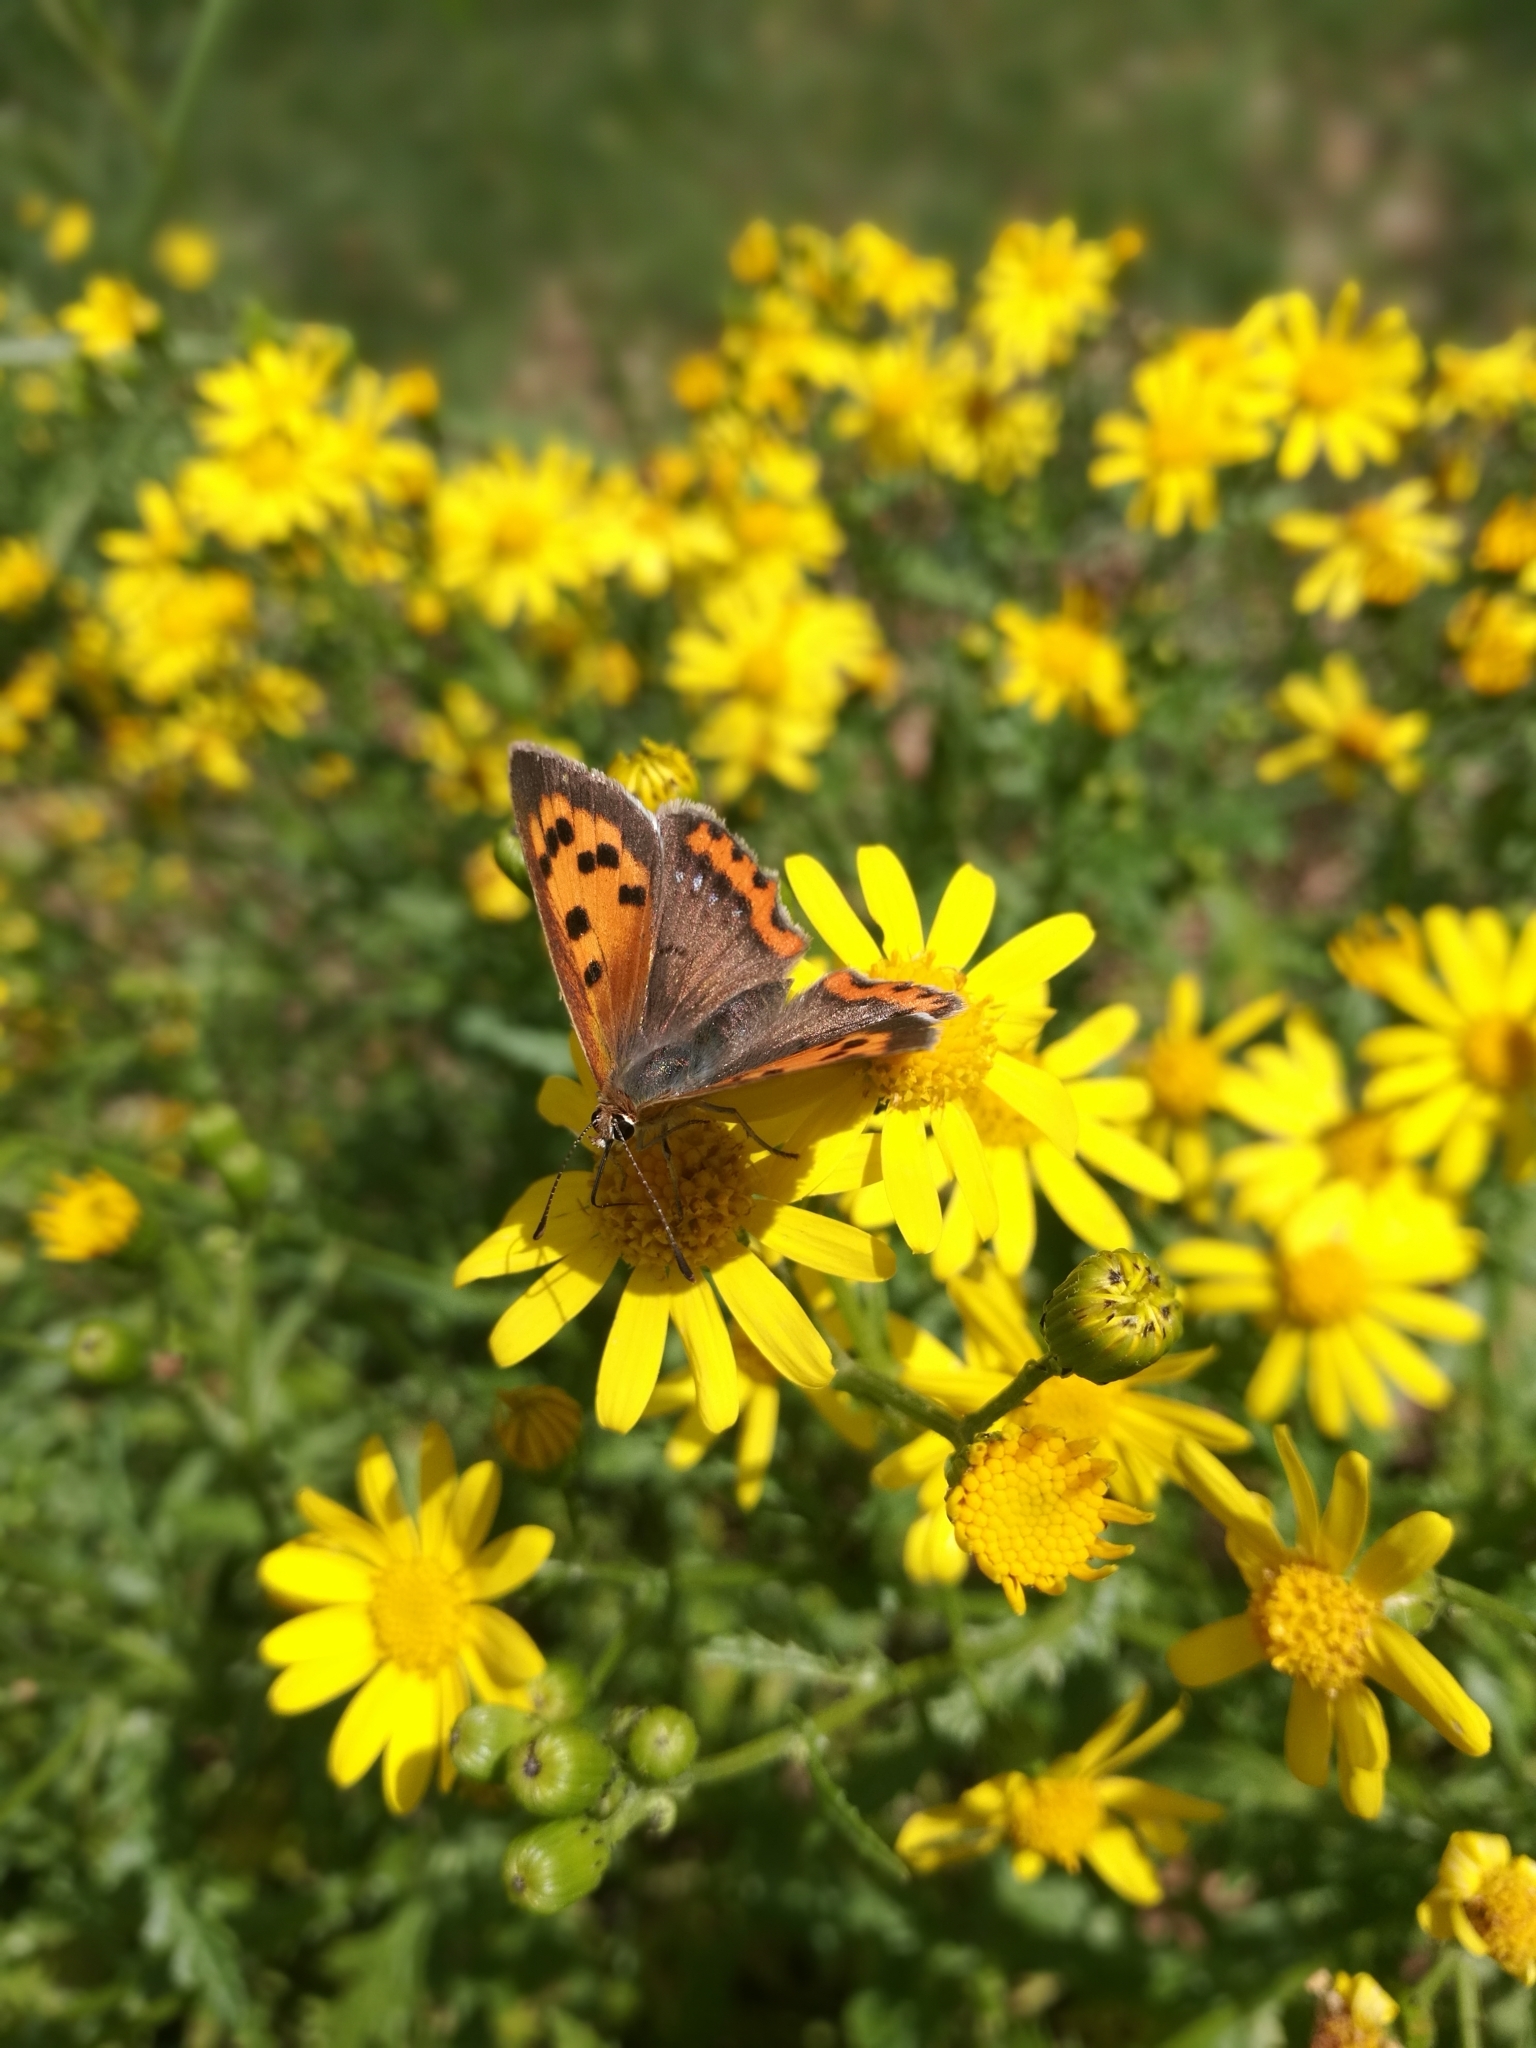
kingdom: Animalia
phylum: Arthropoda
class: Insecta
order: Lepidoptera
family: Lycaenidae
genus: Lycaena
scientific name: Lycaena phlaeas
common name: Small copper
